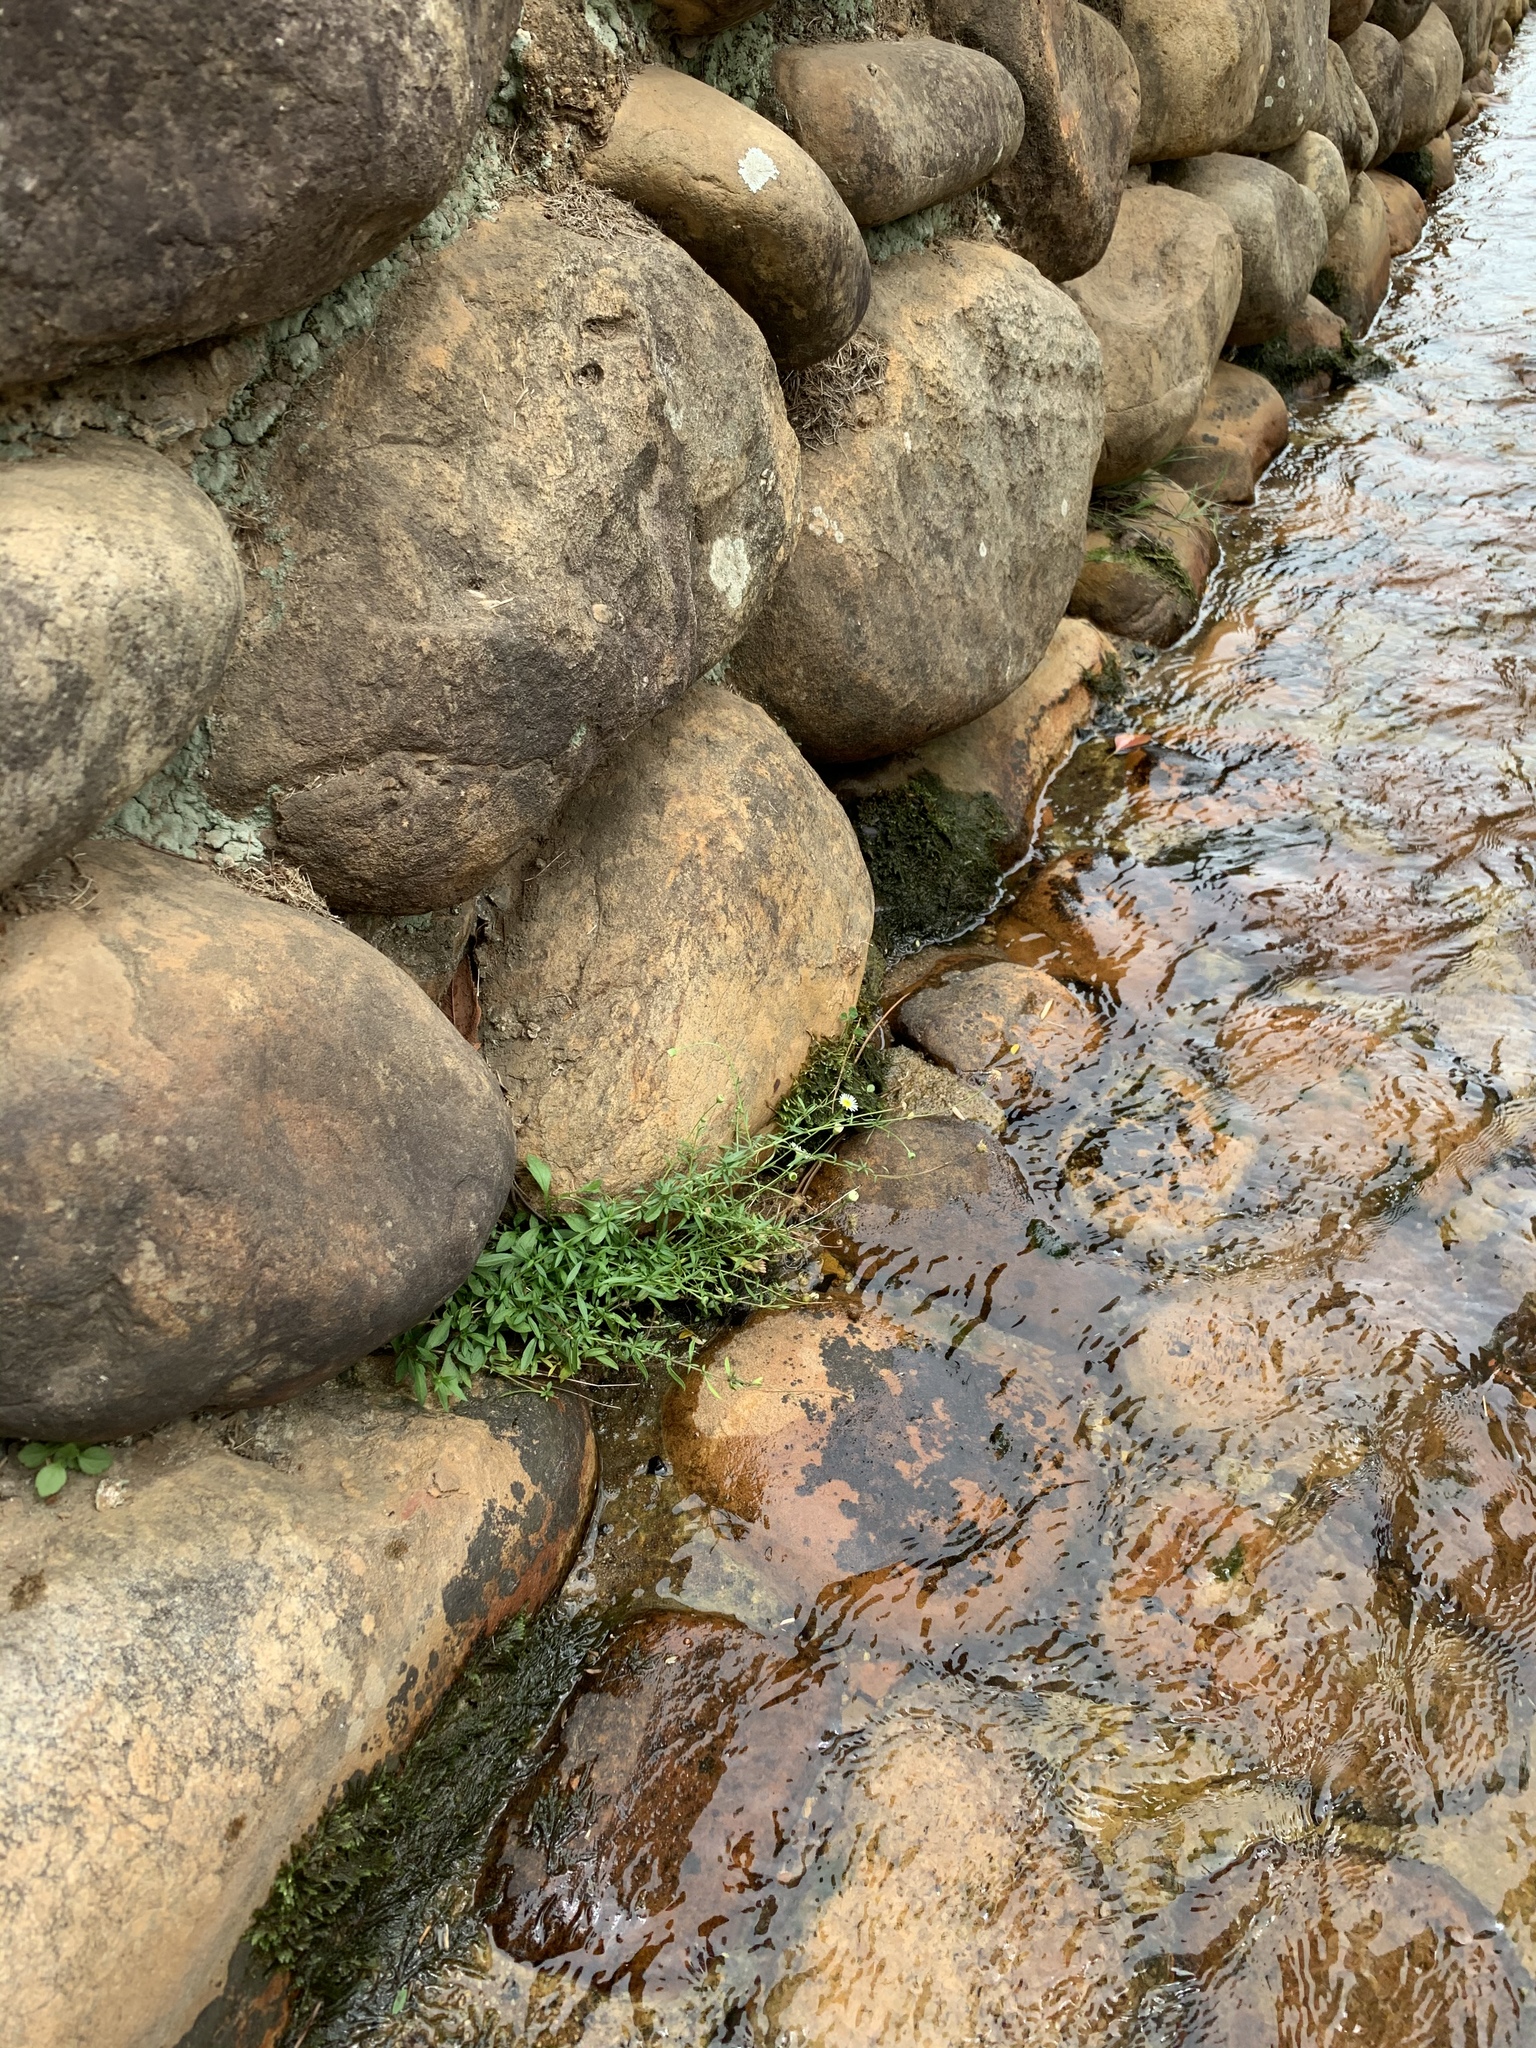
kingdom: Plantae
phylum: Tracheophyta
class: Magnoliopsida
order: Asterales
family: Asteraceae
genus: Erigeron
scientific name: Erigeron karvinskianus
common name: Mexican fleabane
